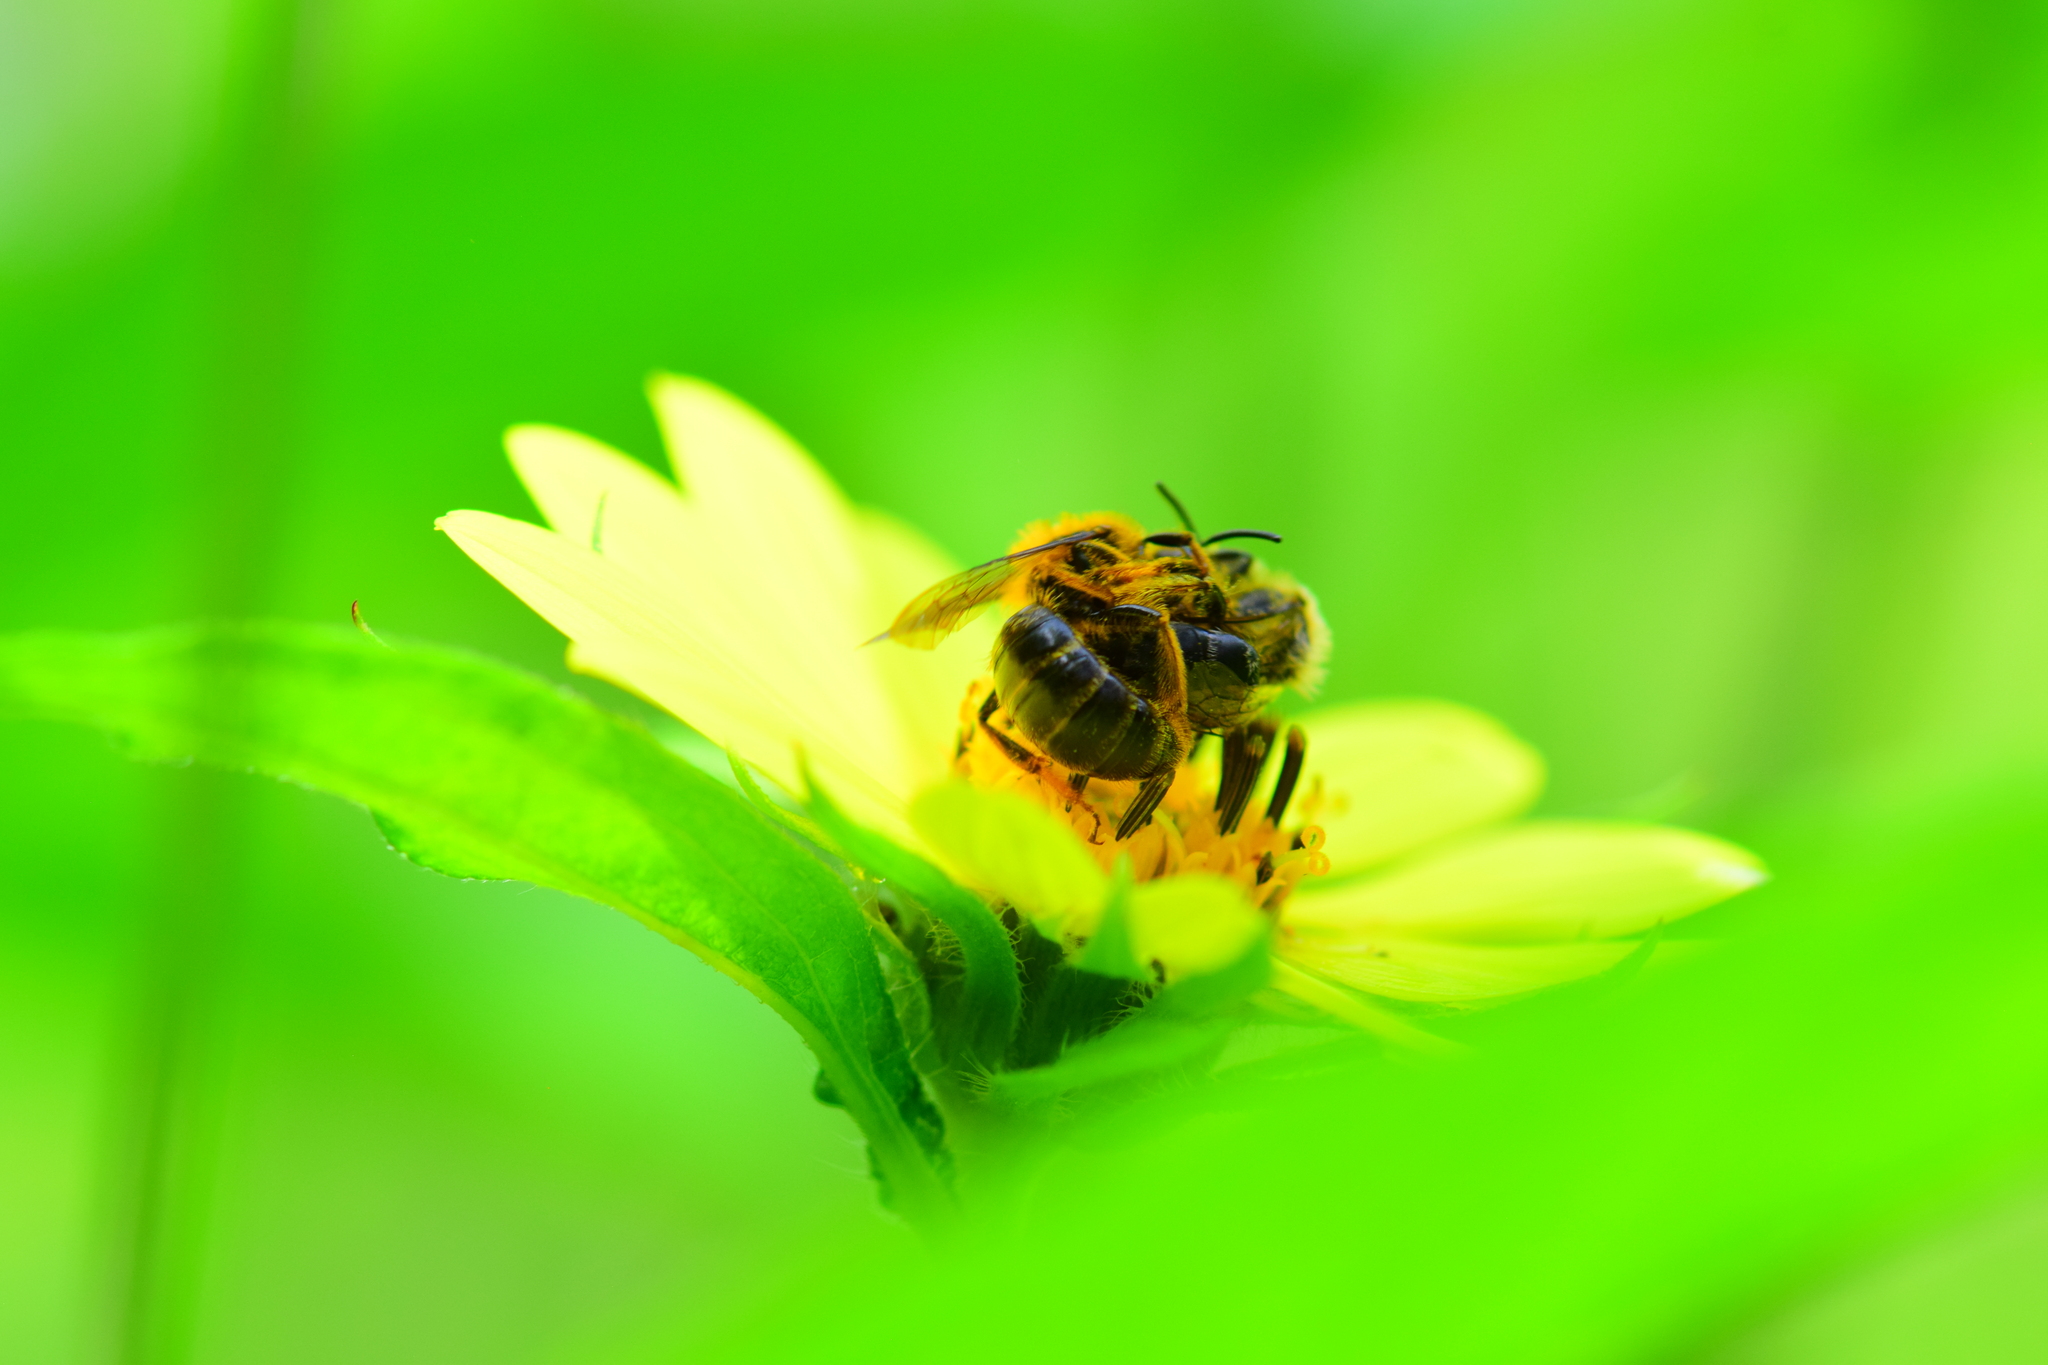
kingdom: Animalia
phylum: Arthropoda
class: Insecta
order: Hymenoptera
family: Andrenidae
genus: Andrena
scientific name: Andrena helianthi
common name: Sunflower mining bee
